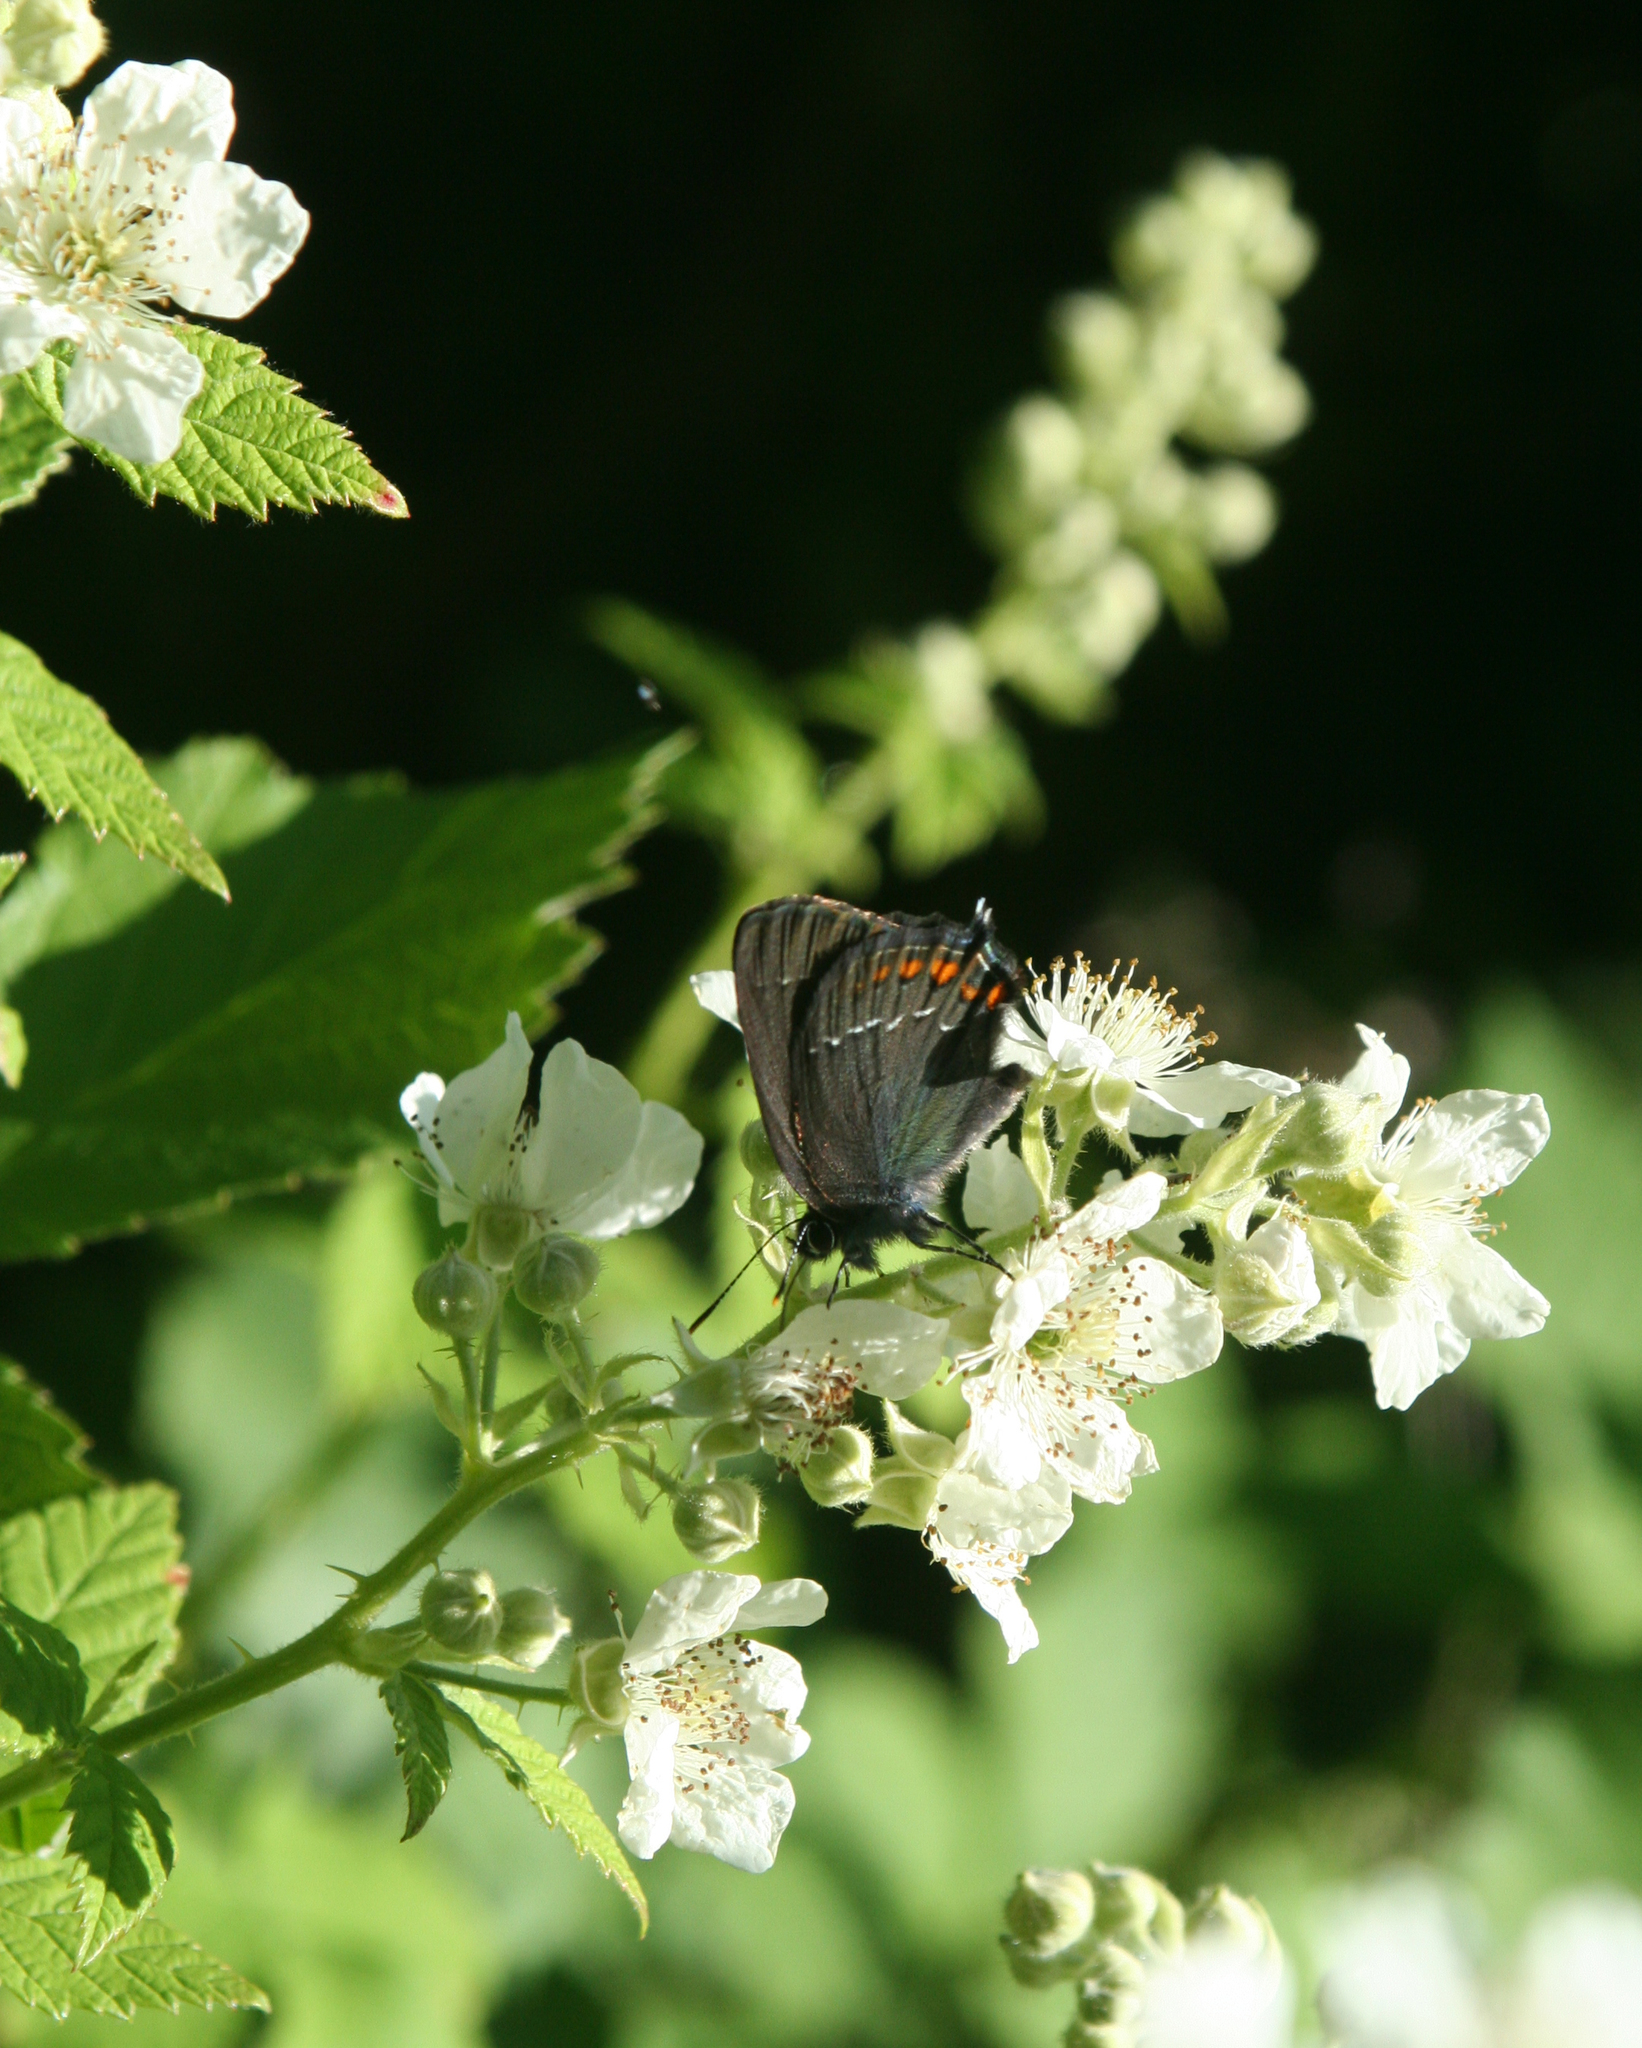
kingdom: Animalia
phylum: Arthropoda
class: Insecta
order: Lepidoptera
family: Lycaenidae
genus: Nordmannia
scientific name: Nordmannia ilicis
